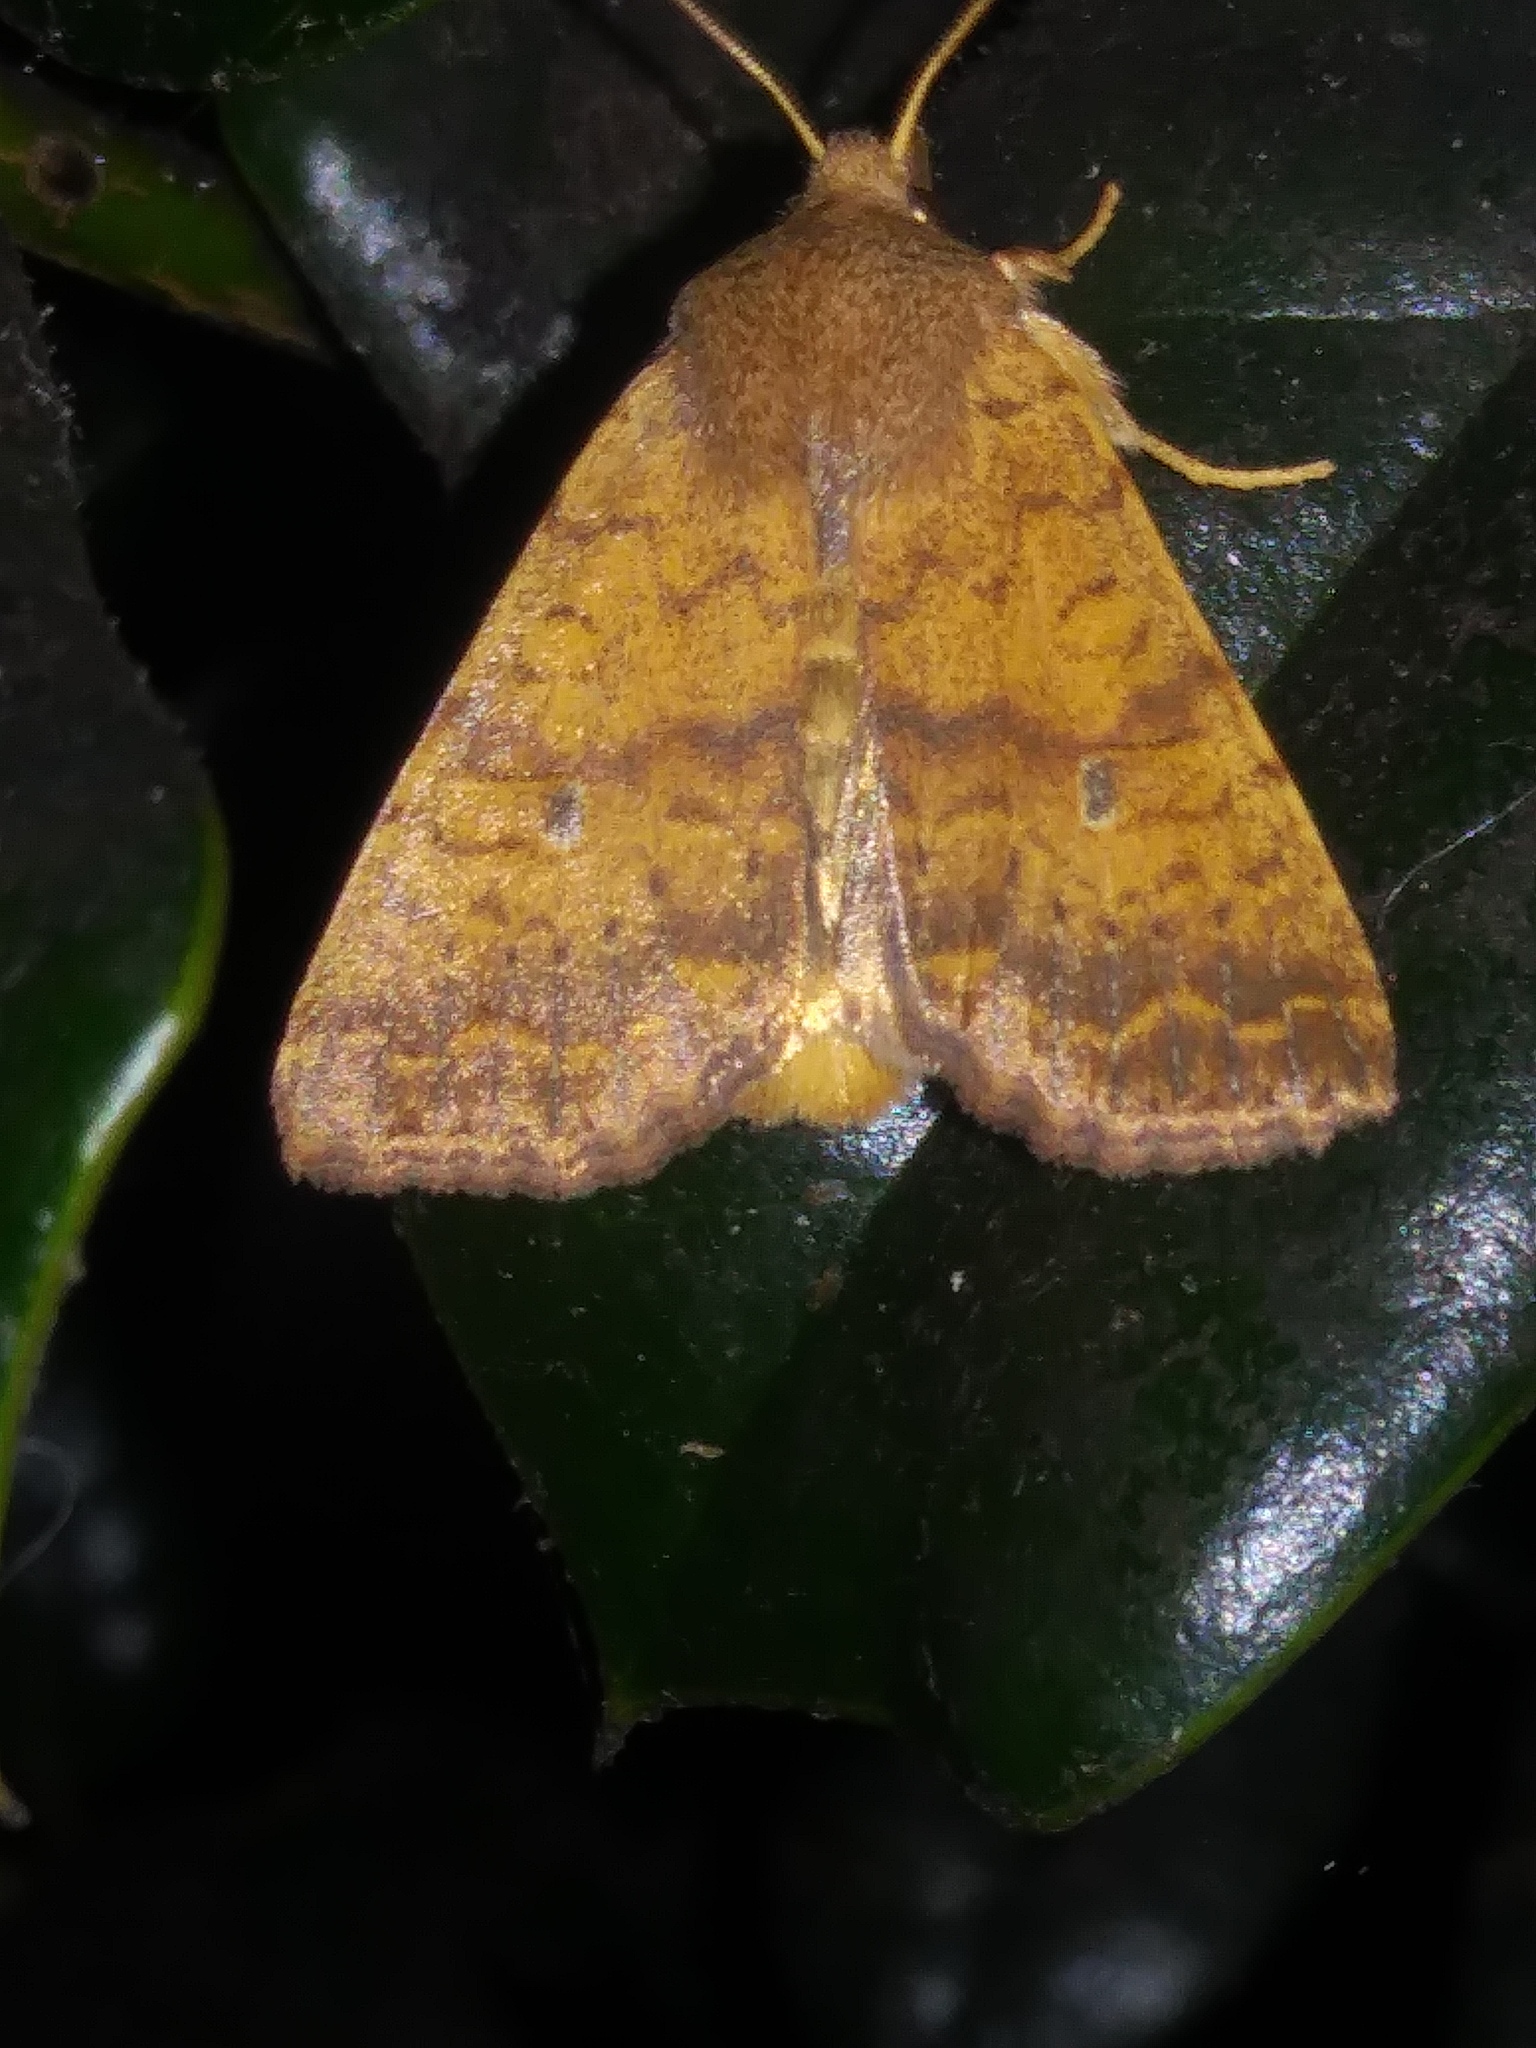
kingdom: Animalia
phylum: Arthropoda
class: Insecta
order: Lepidoptera
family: Noctuidae
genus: Agrochola
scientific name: Agrochola bicolorago
